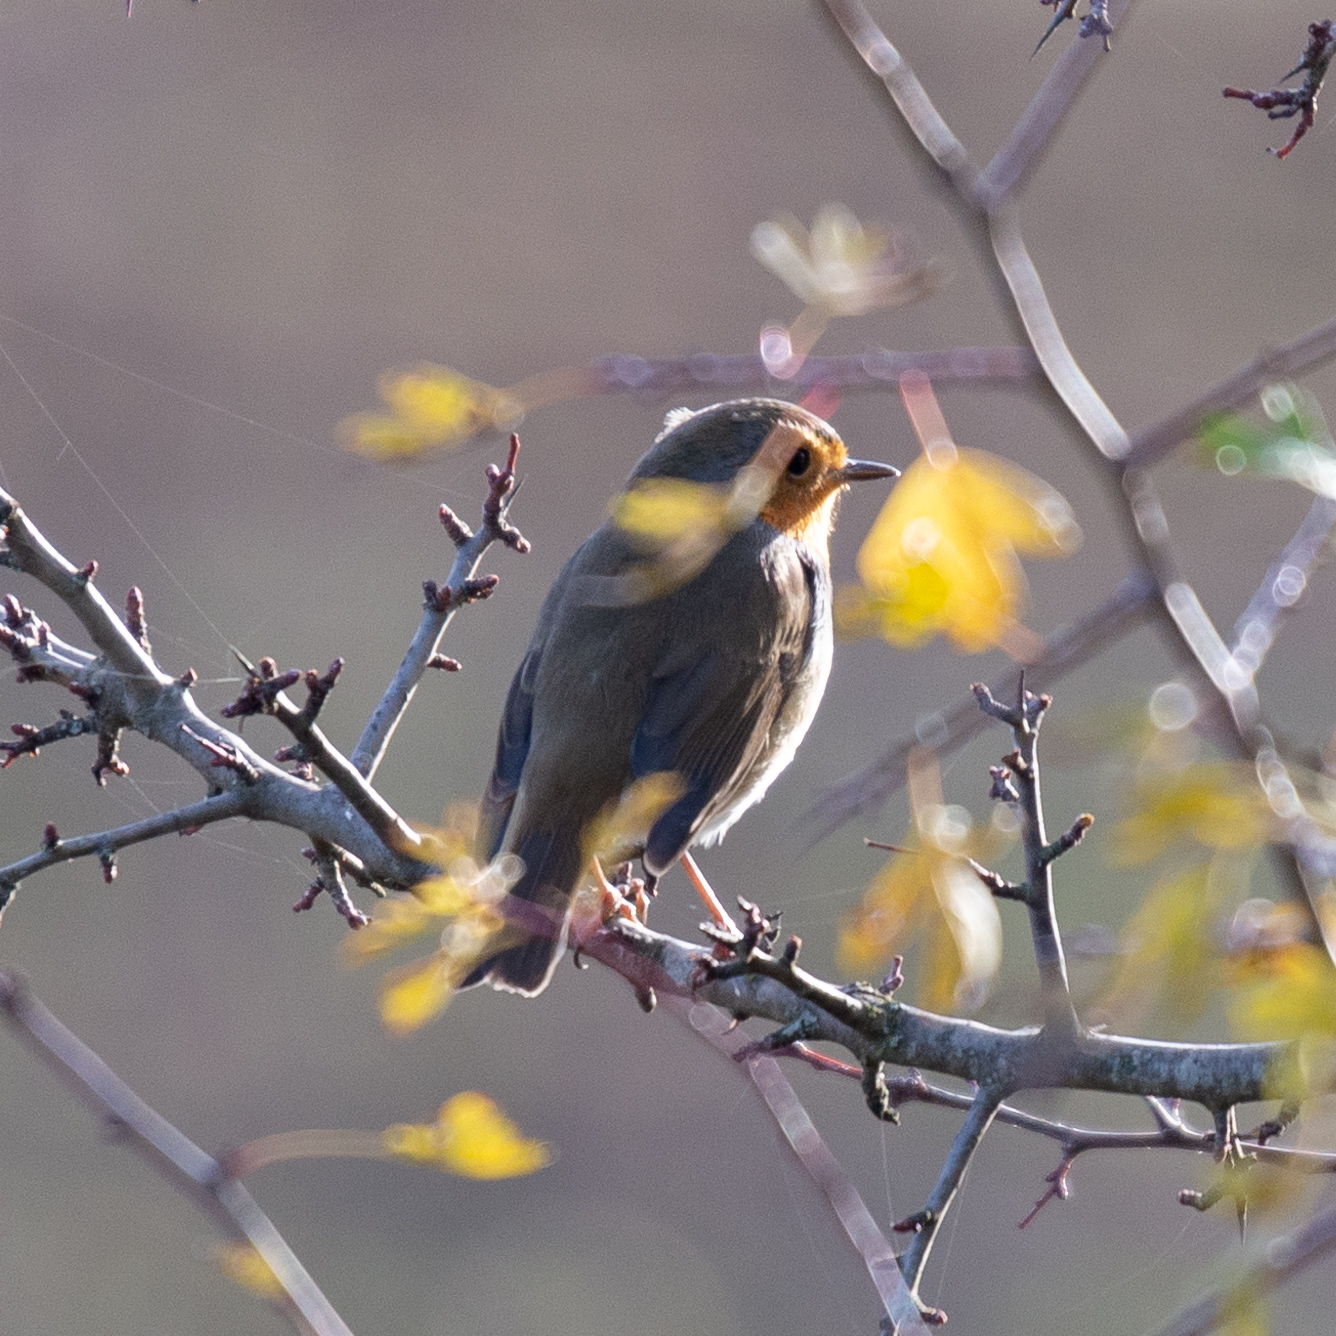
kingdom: Animalia
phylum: Chordata
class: Aves
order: Passeriformes
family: Muscicapidae
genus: Erithacus
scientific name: Erithacus rubecula
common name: European robin
